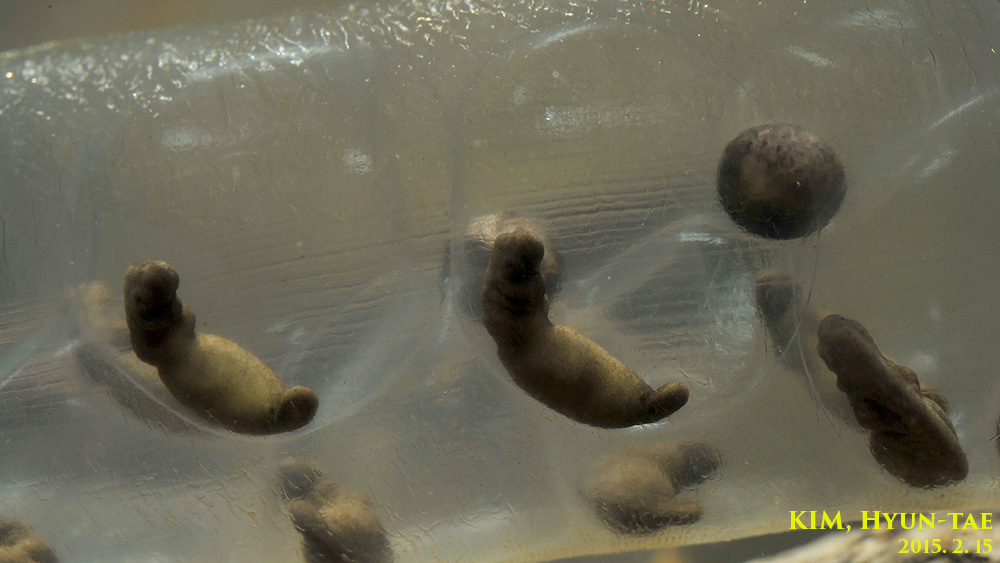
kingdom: Animalia
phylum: Chordata
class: Amphibia
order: Caudata
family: Hynobiidae
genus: Hynobius
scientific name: Hynobius leechii
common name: Gensan salamander
